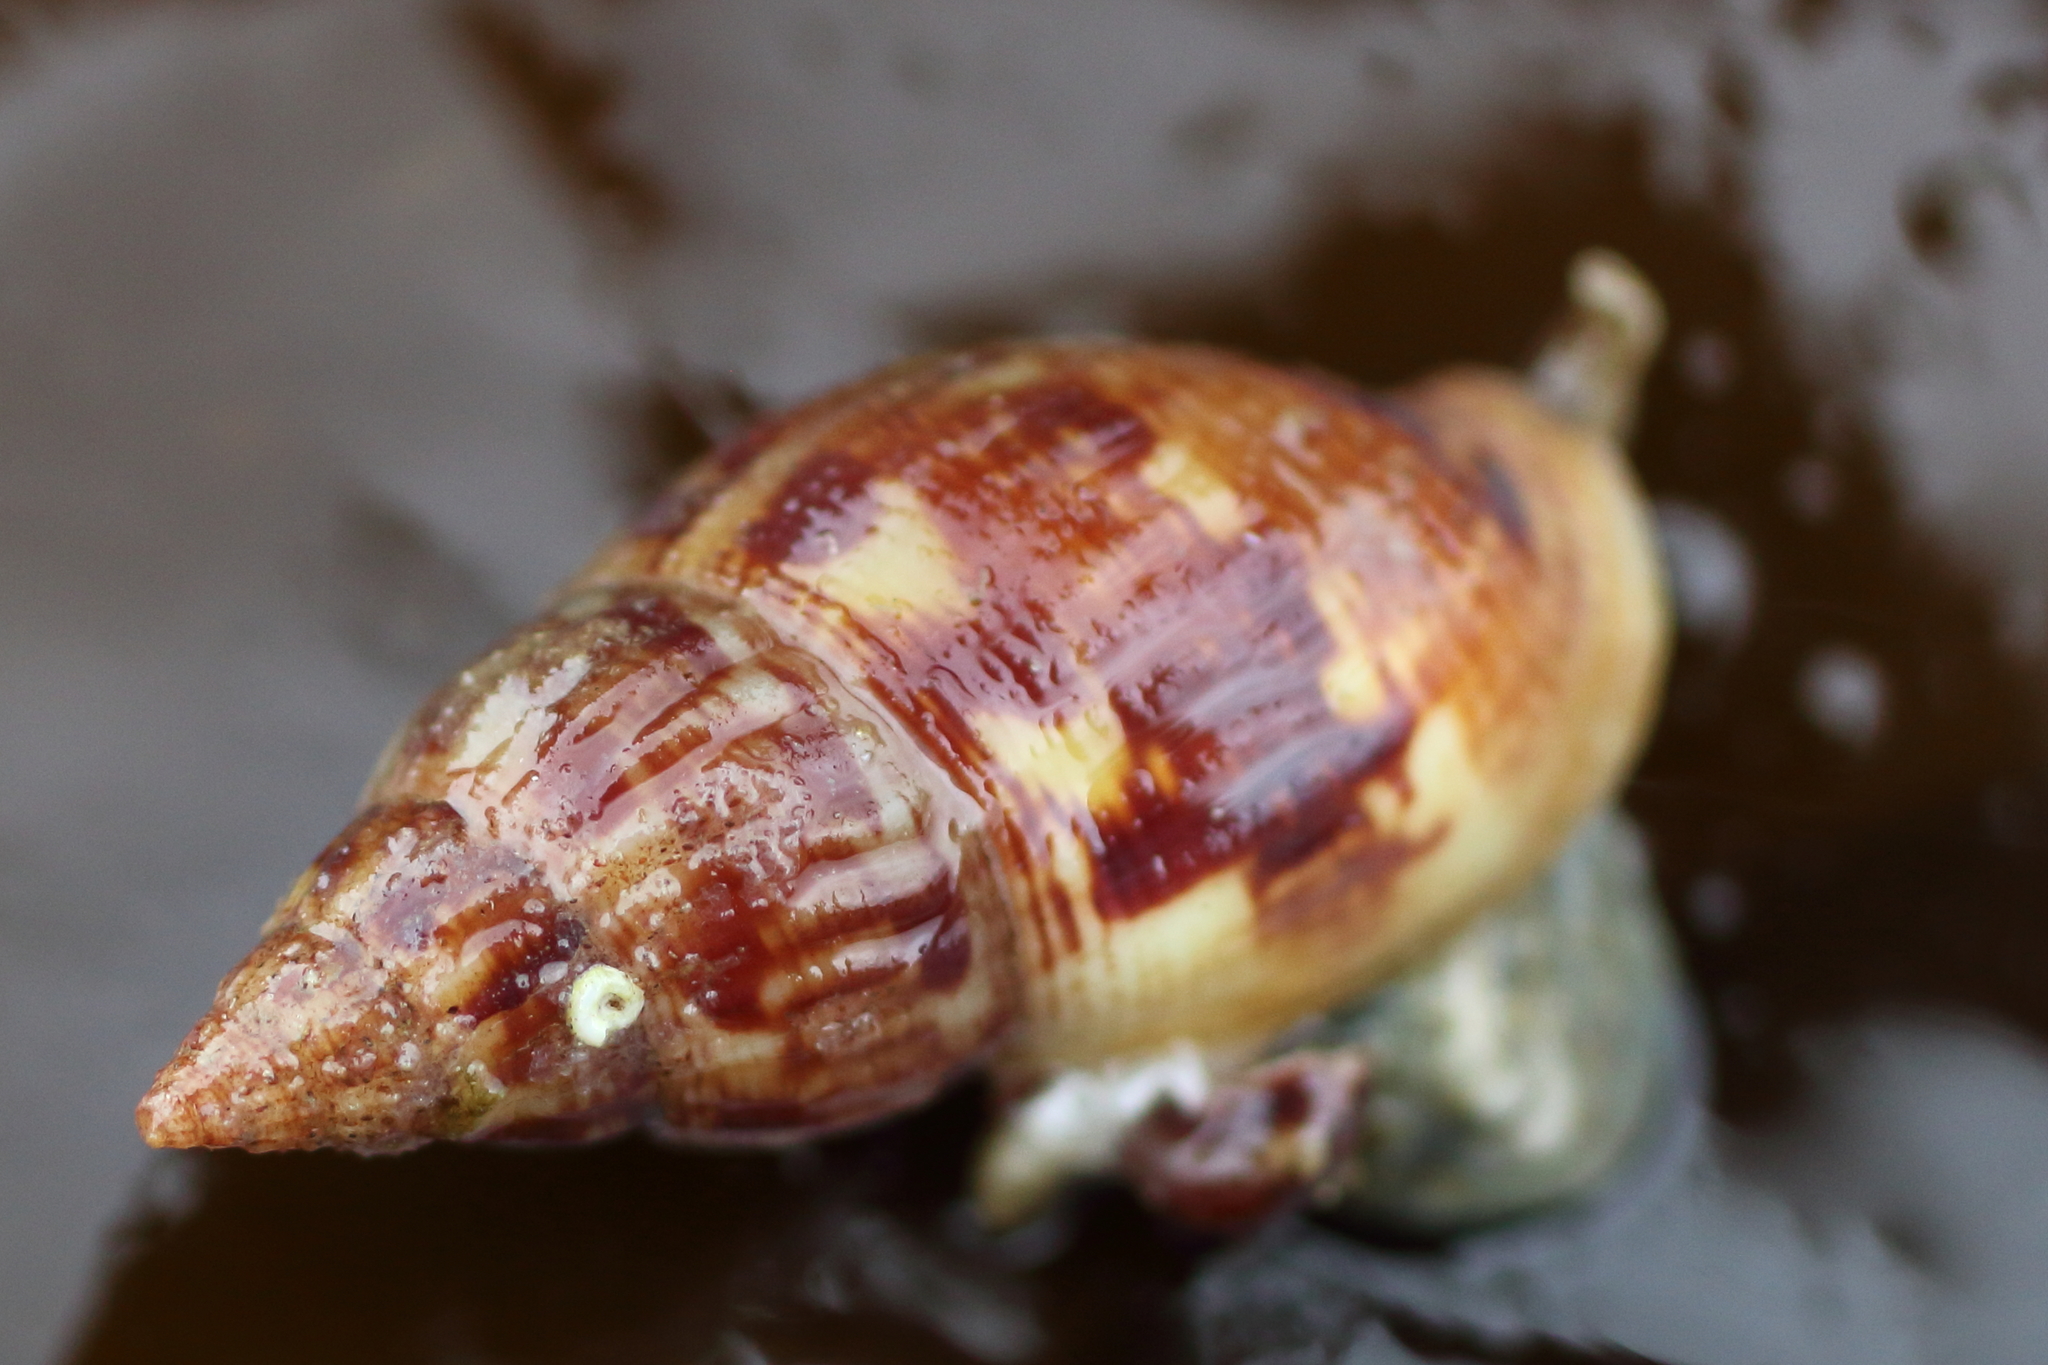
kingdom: Animalia
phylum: Mollusca
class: Gastropoda
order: Neogastropoda
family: Columbellidae
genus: Amphissa
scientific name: Amphissa columbiana
